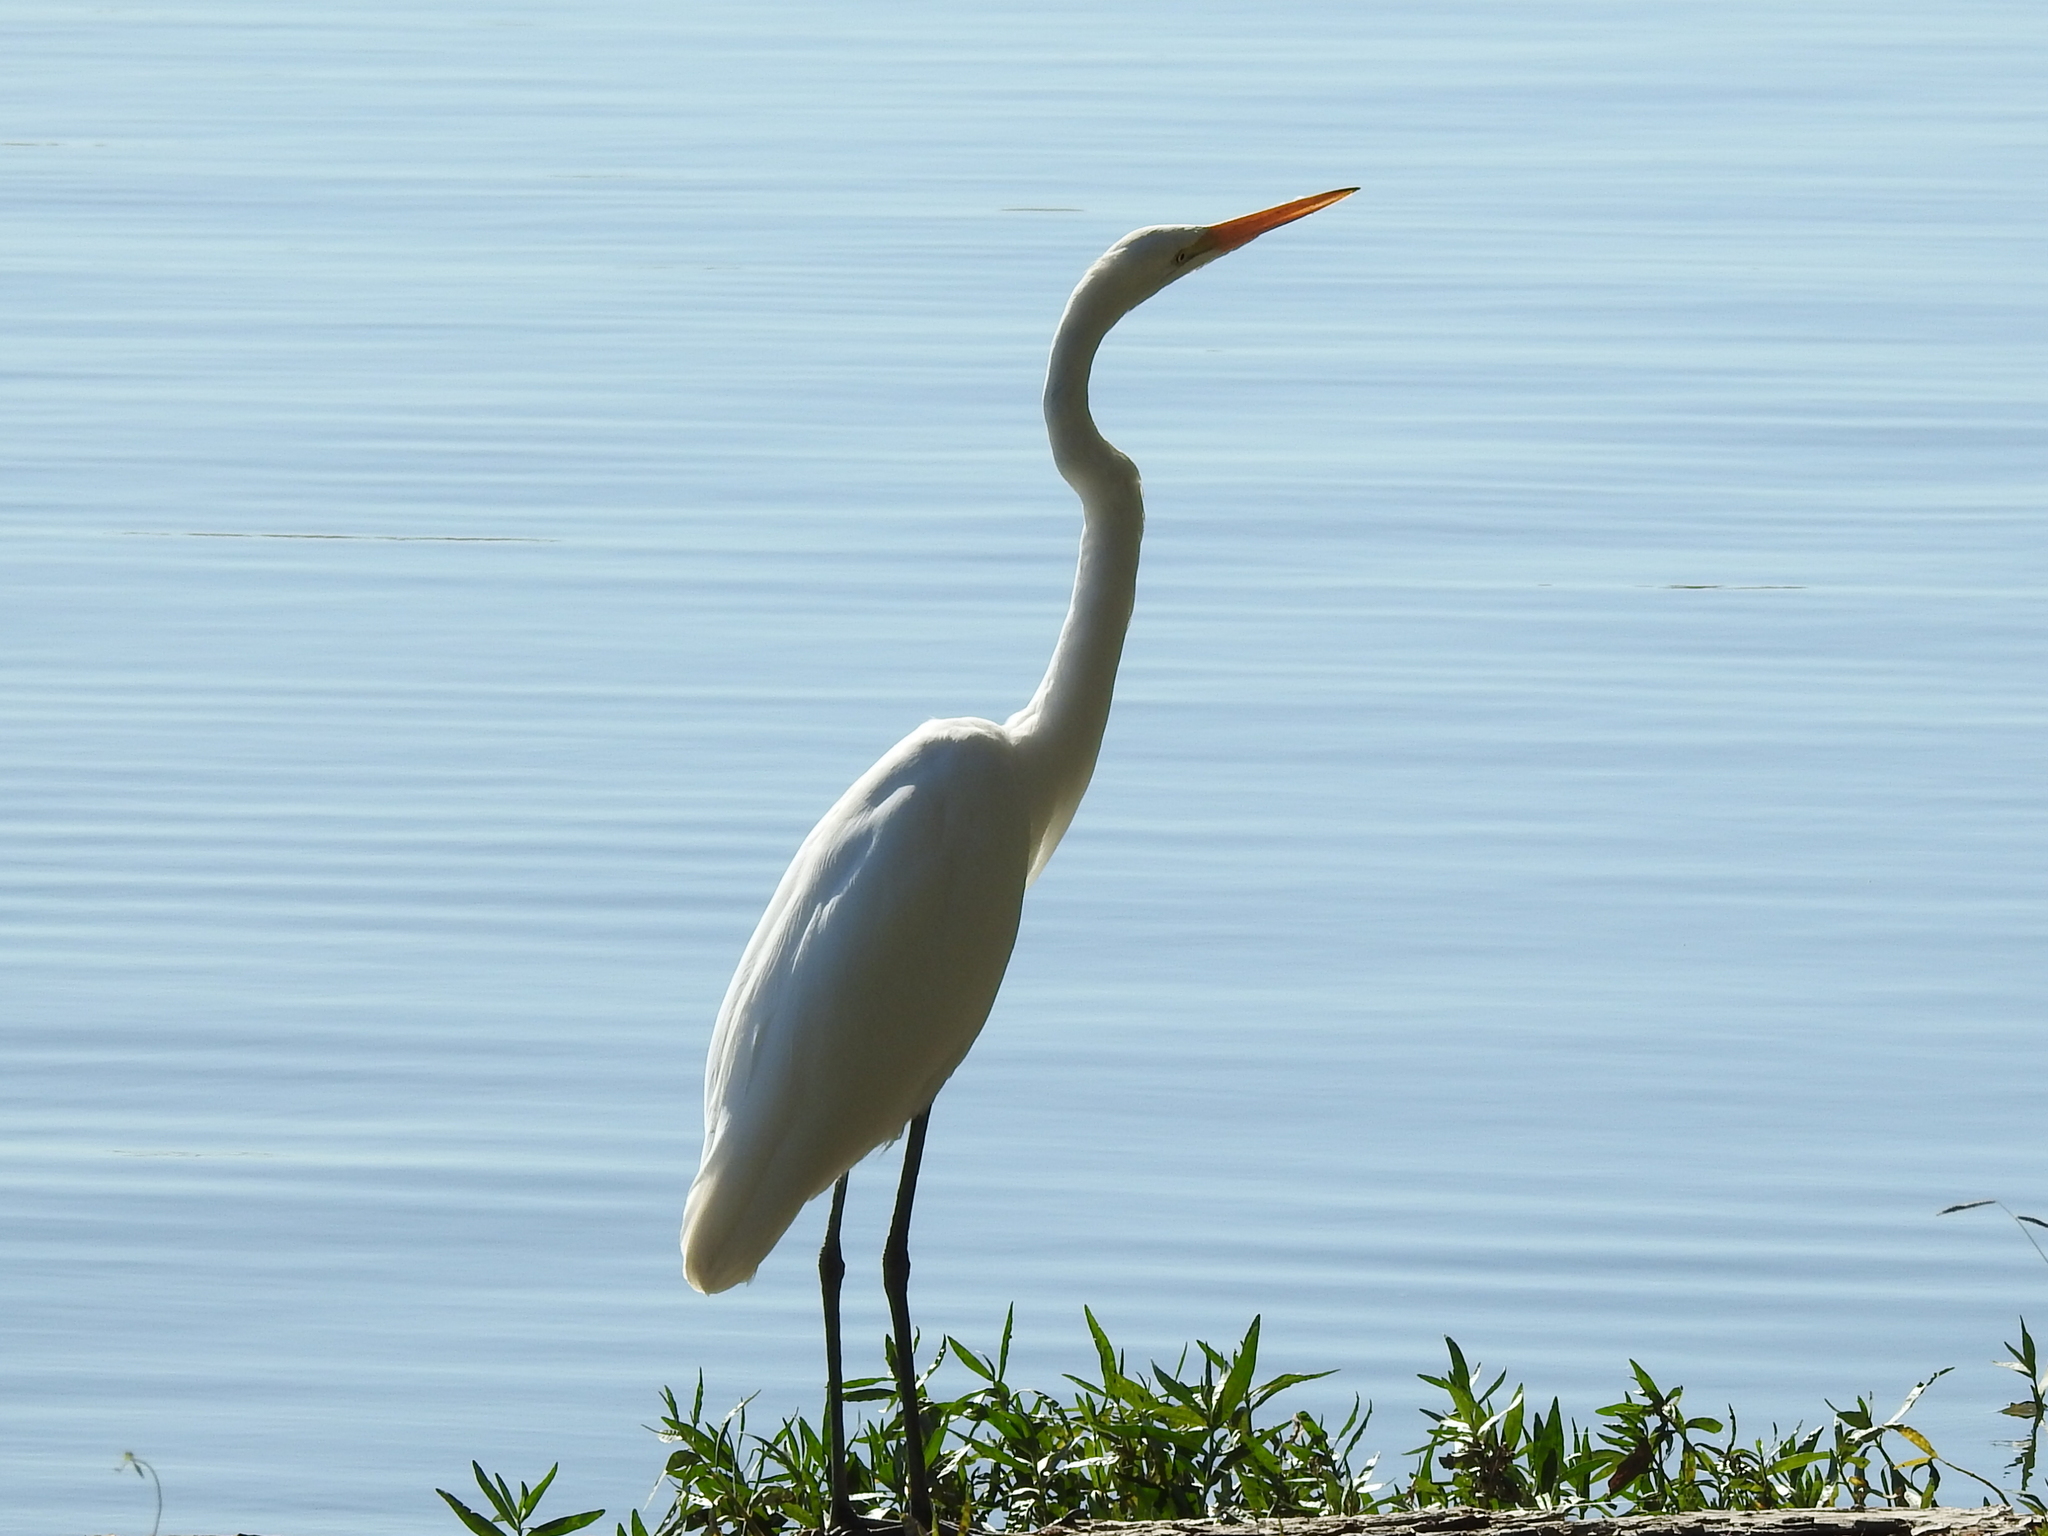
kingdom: Animalia
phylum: Chordata
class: Aves
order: Pelecaniformes
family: Ardeidae
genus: Ardea
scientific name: Ardea alba
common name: Great egret
